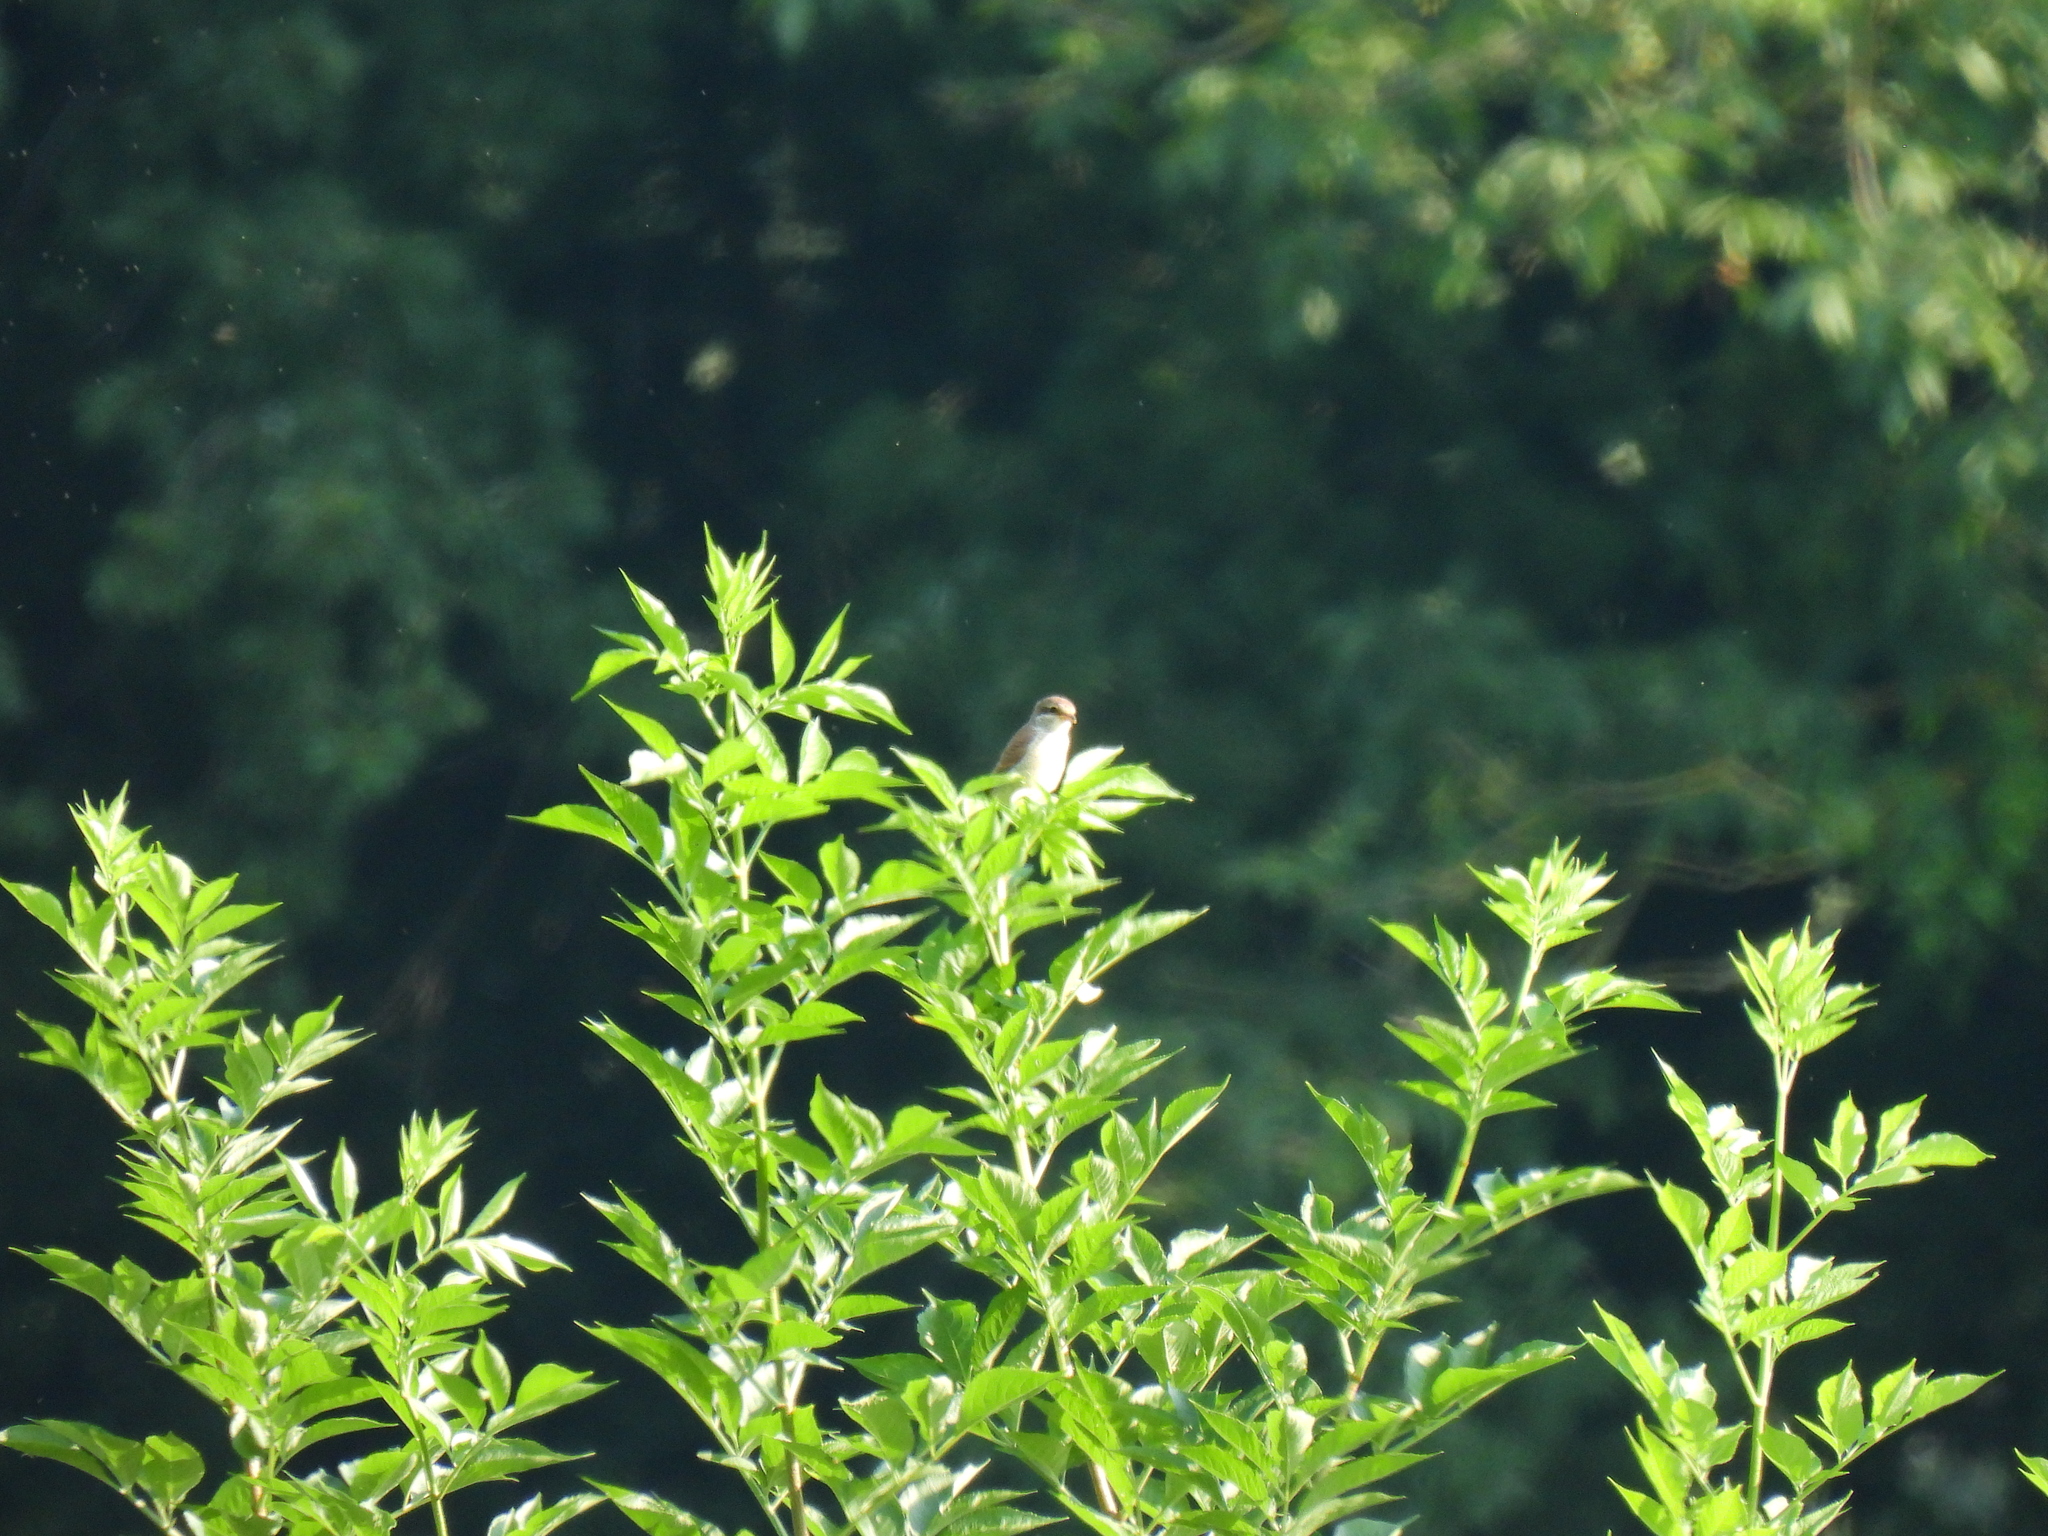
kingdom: Animalia
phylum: Chordata
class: Aves
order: Passeriformes
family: Laniidae
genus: Lanius
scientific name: Lanius collurio
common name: Red-backed shrike
